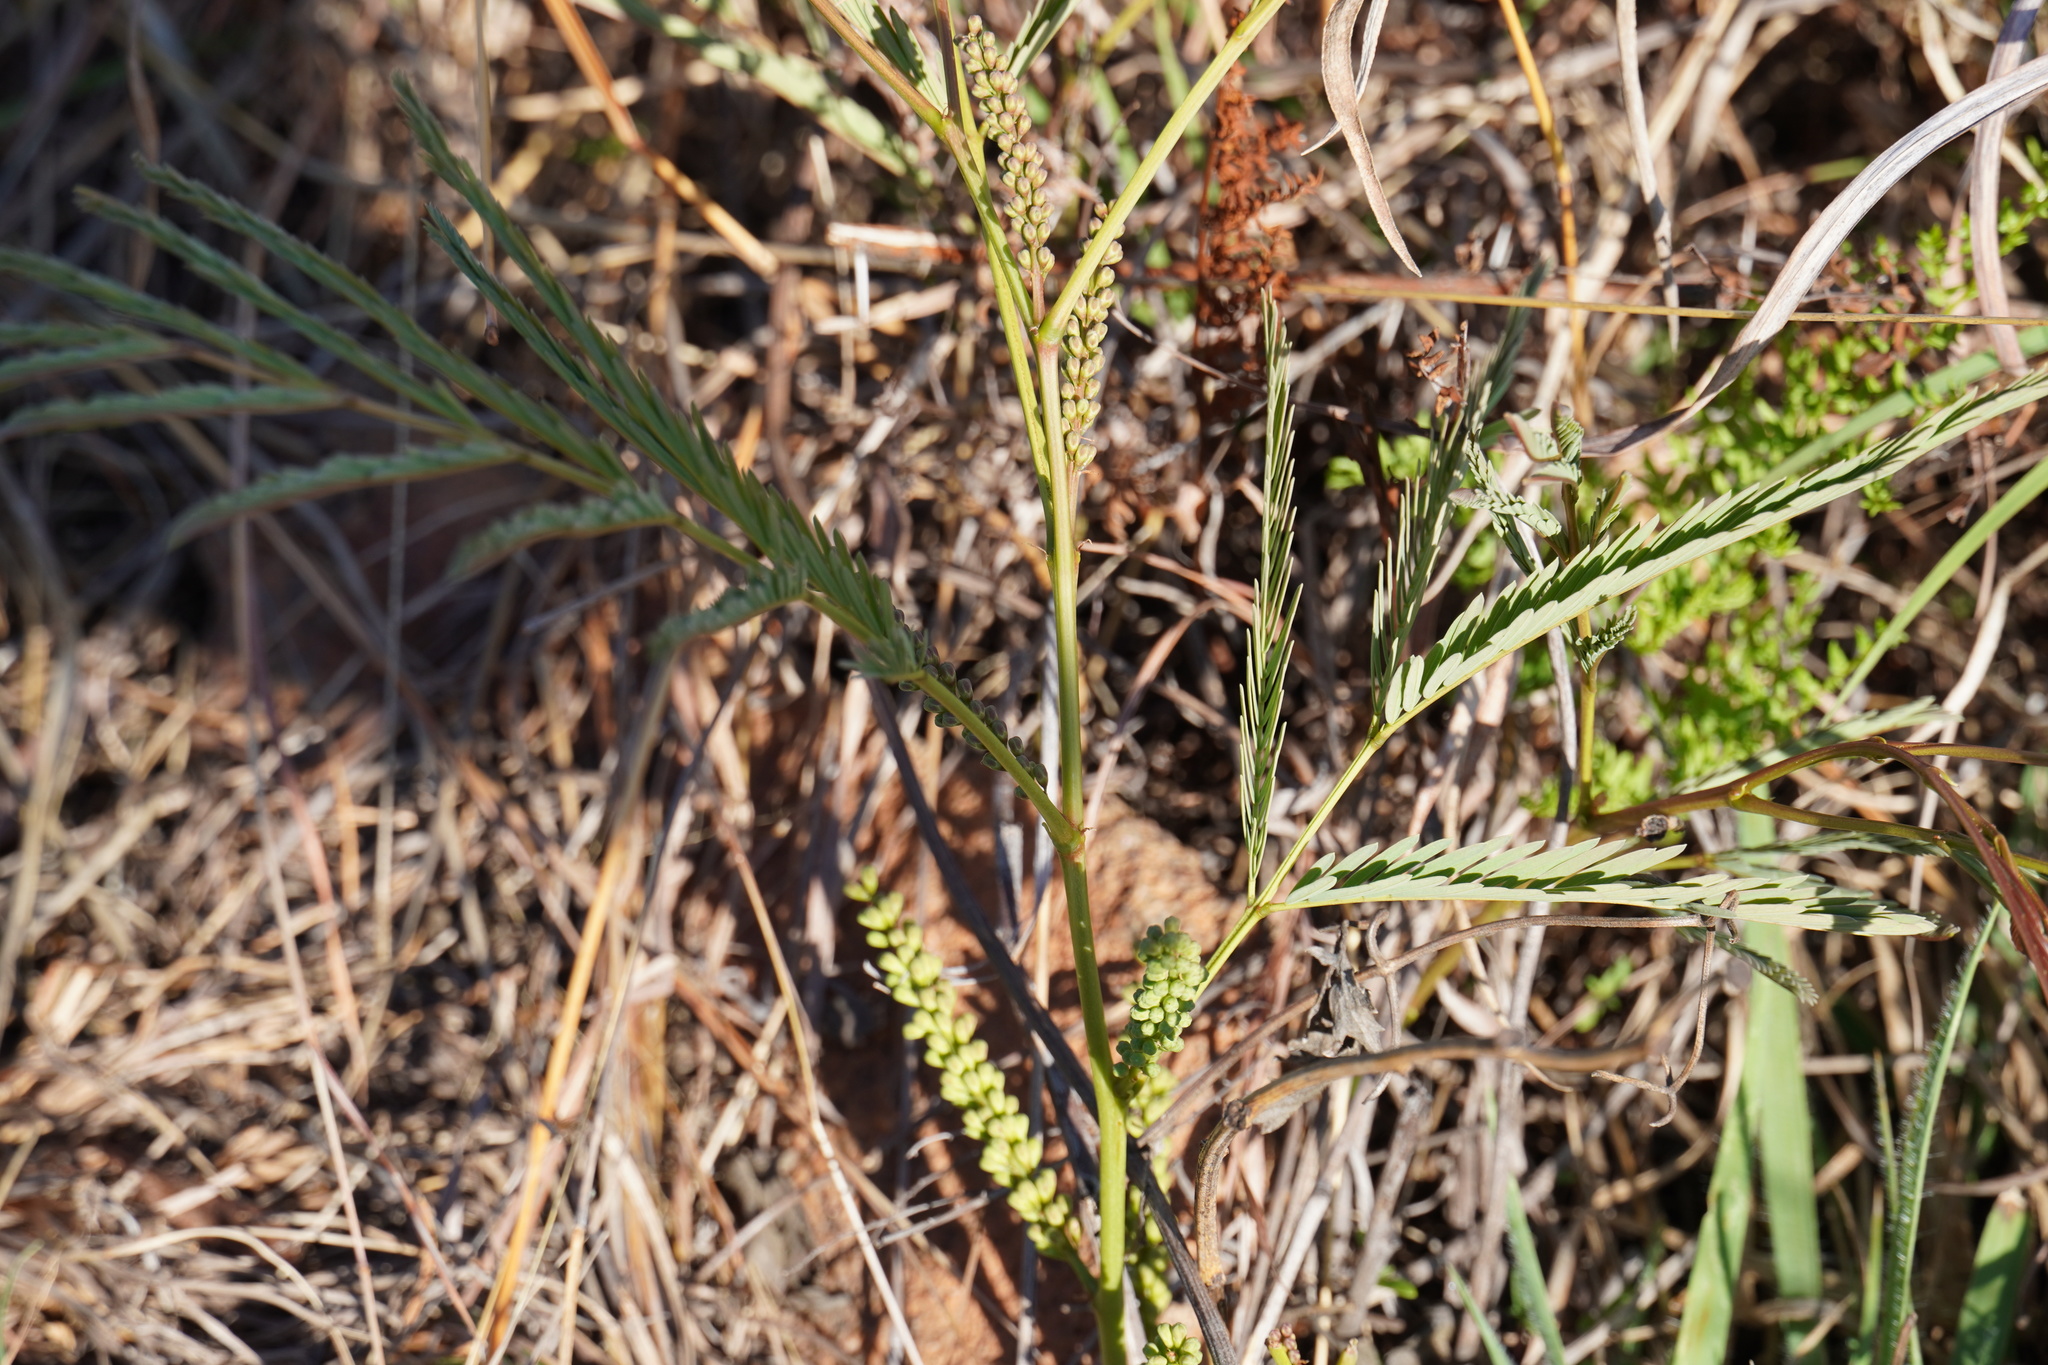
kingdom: Plantae
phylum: Tracheophyta
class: Magnoliopsida
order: Fabales
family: Fabaceae
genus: Elephantorrhiza
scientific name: Elephantorrhiza elephantina
